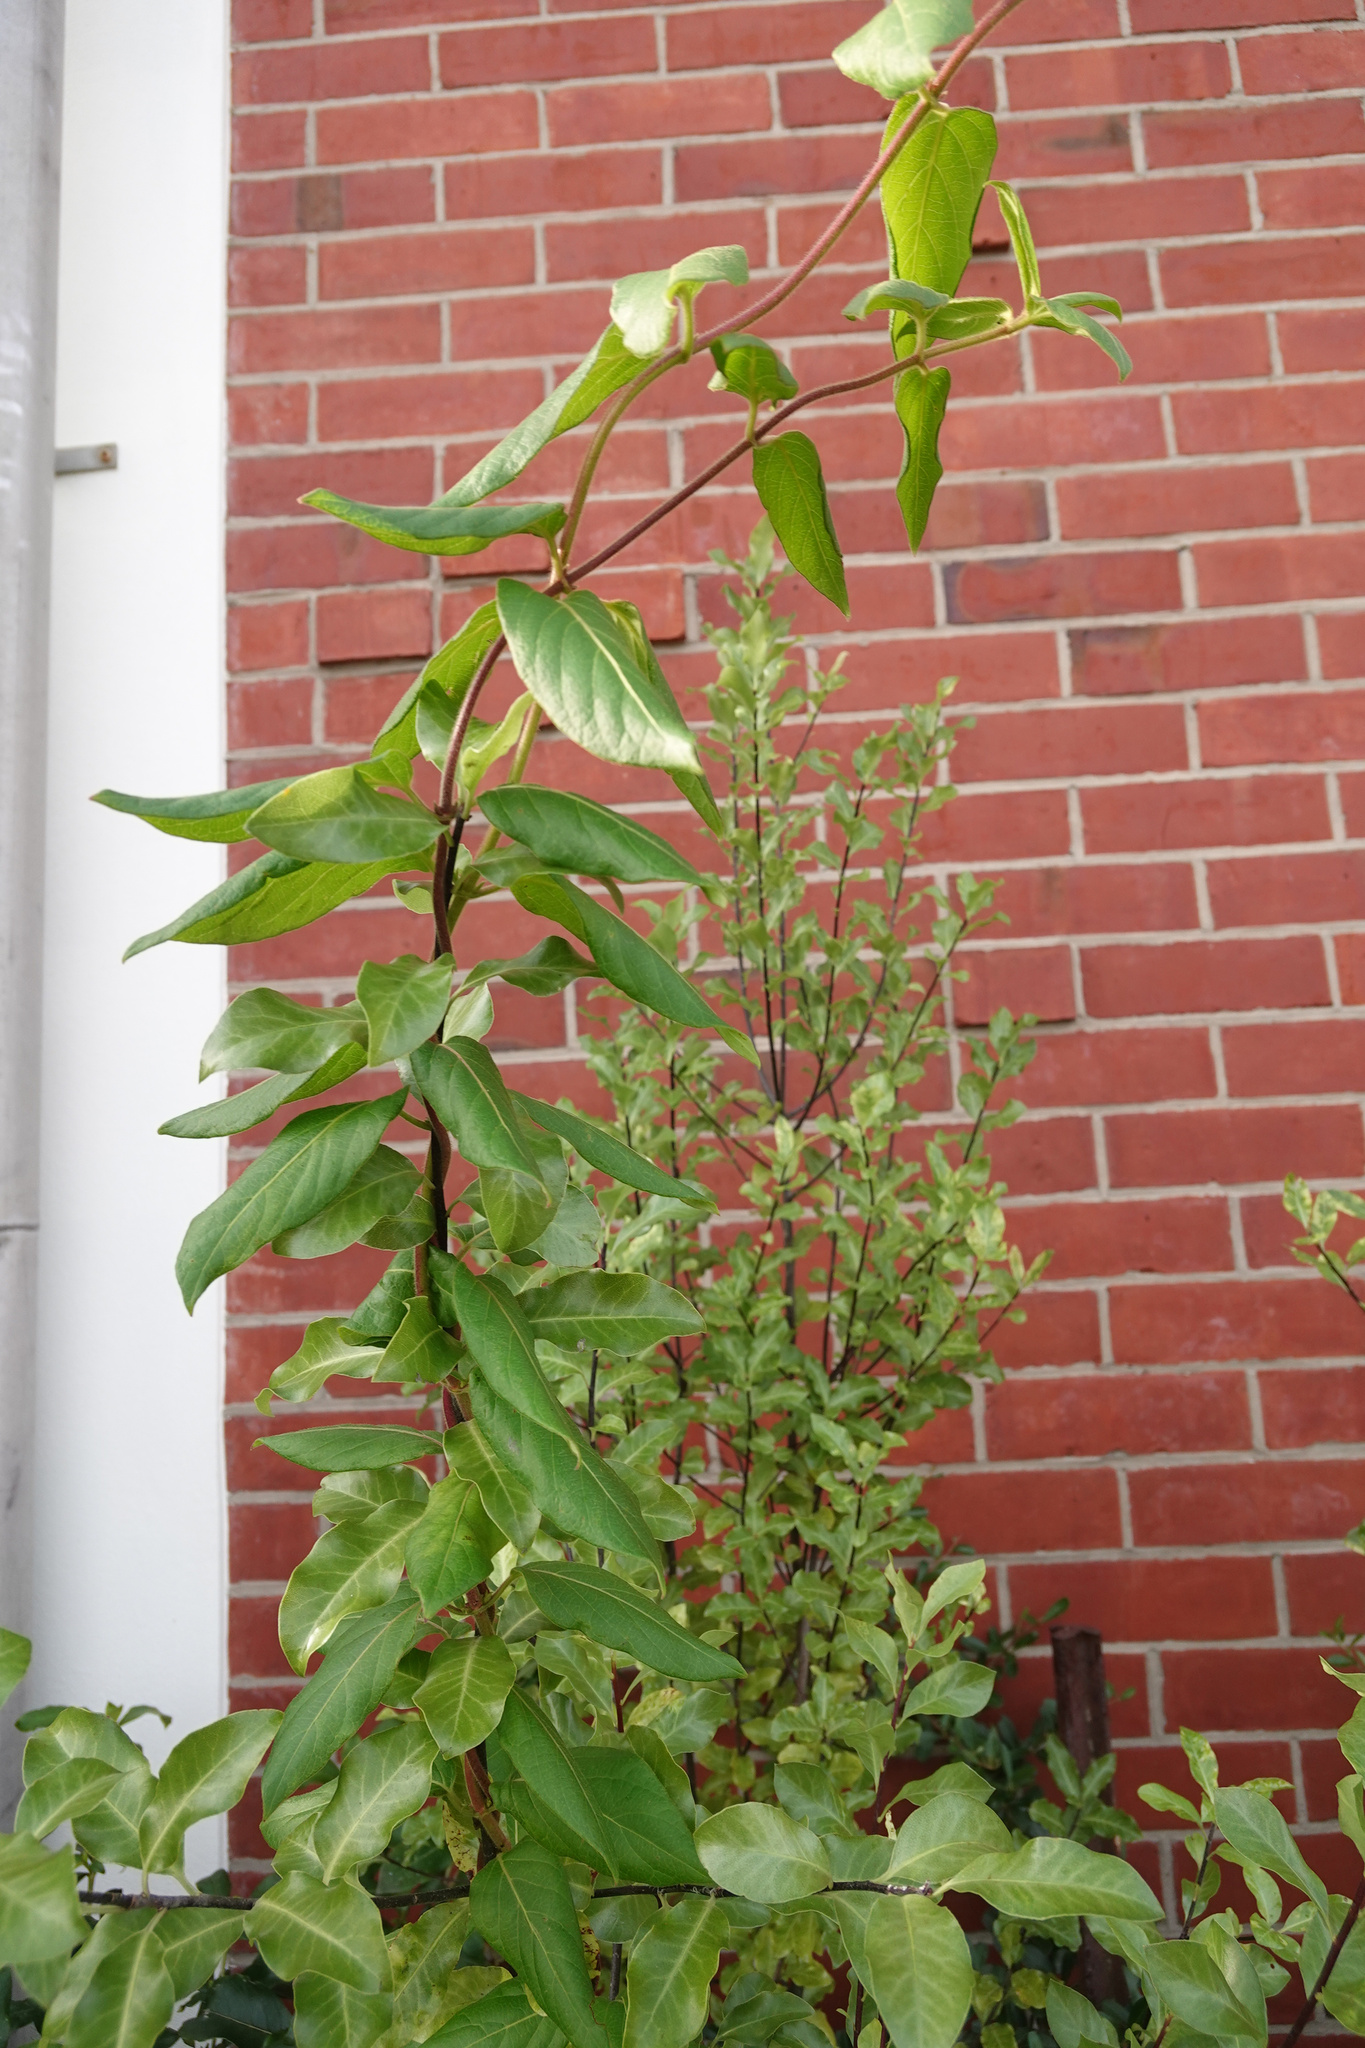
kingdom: Plantae
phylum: Tracheophyta
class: Magnoliopsida
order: Dipsacales
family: Caprifoliaceae
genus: Lonicera
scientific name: Lonicera japonica
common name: Japanese honeysuckle
